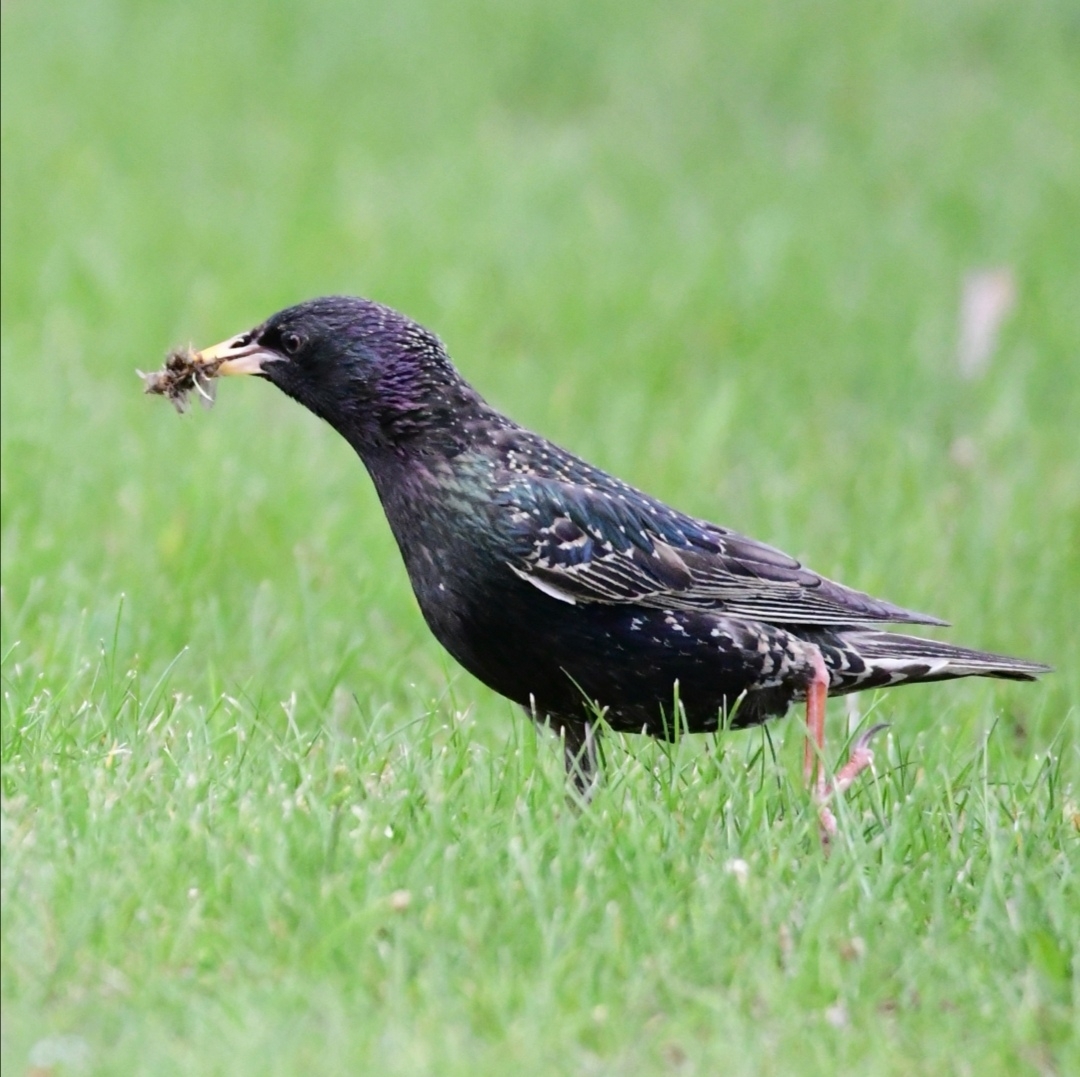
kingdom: Animalia
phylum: Chordata
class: Aves
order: Passeriformes
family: Sturnidae
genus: Sturnus
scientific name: Sturnus vulgaris
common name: Common starling
